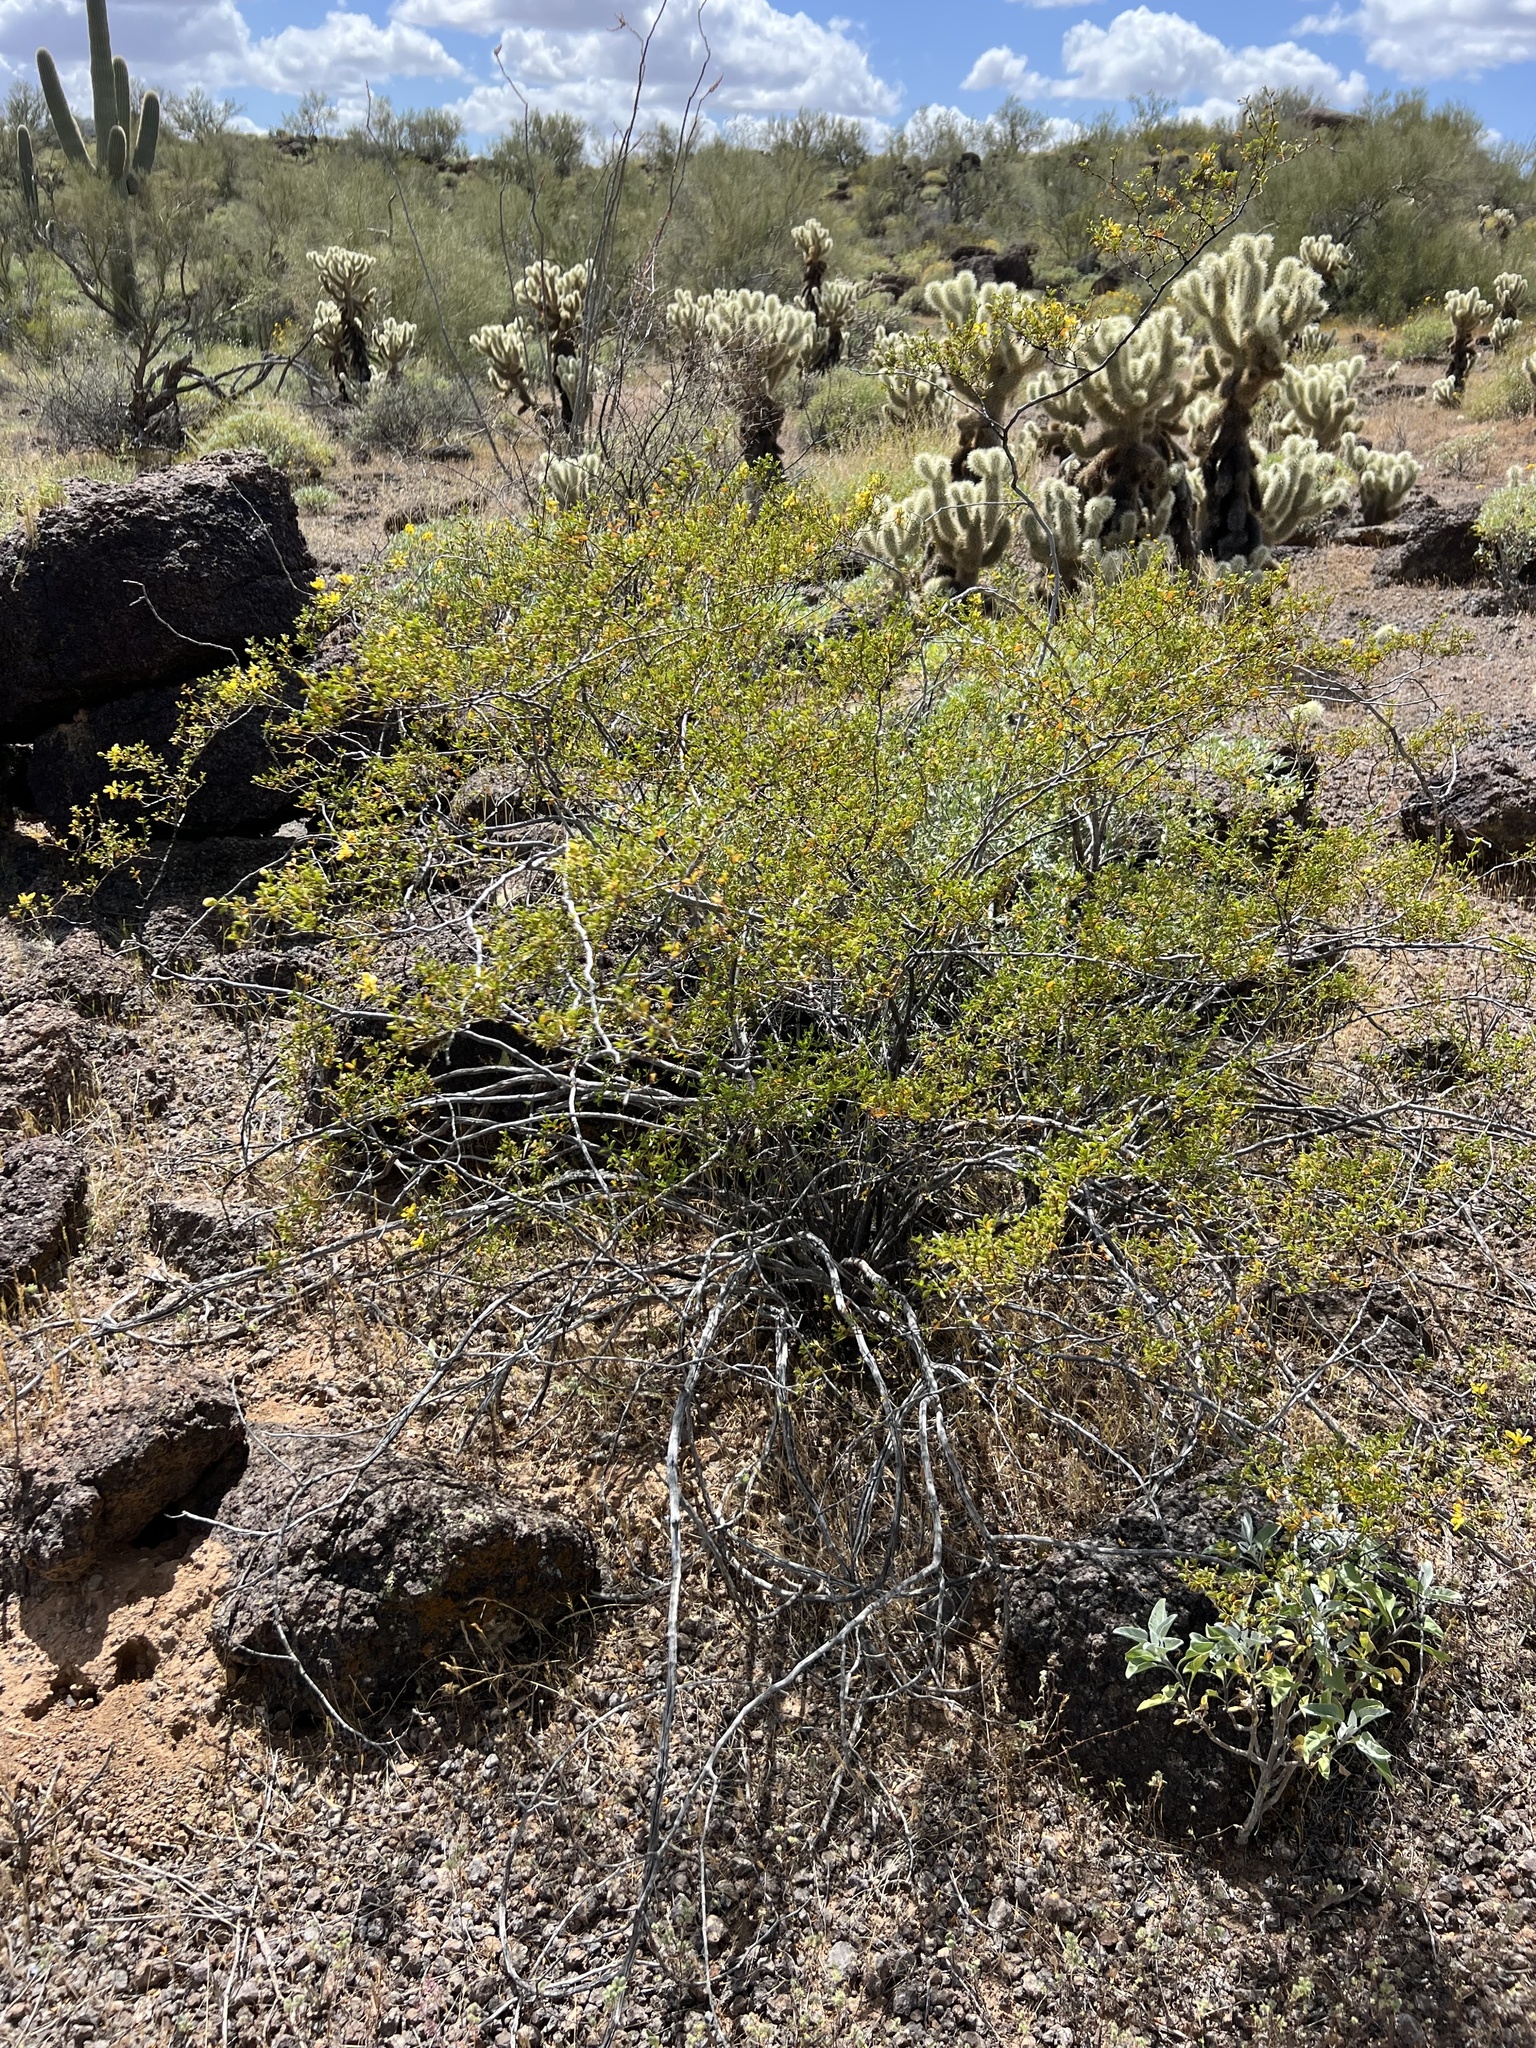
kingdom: Plantae
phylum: Tracheophyta
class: Magnoliopsida
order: Zygophyllales
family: Zygophyllaceae
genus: Larrea
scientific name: Larrea tridentata
